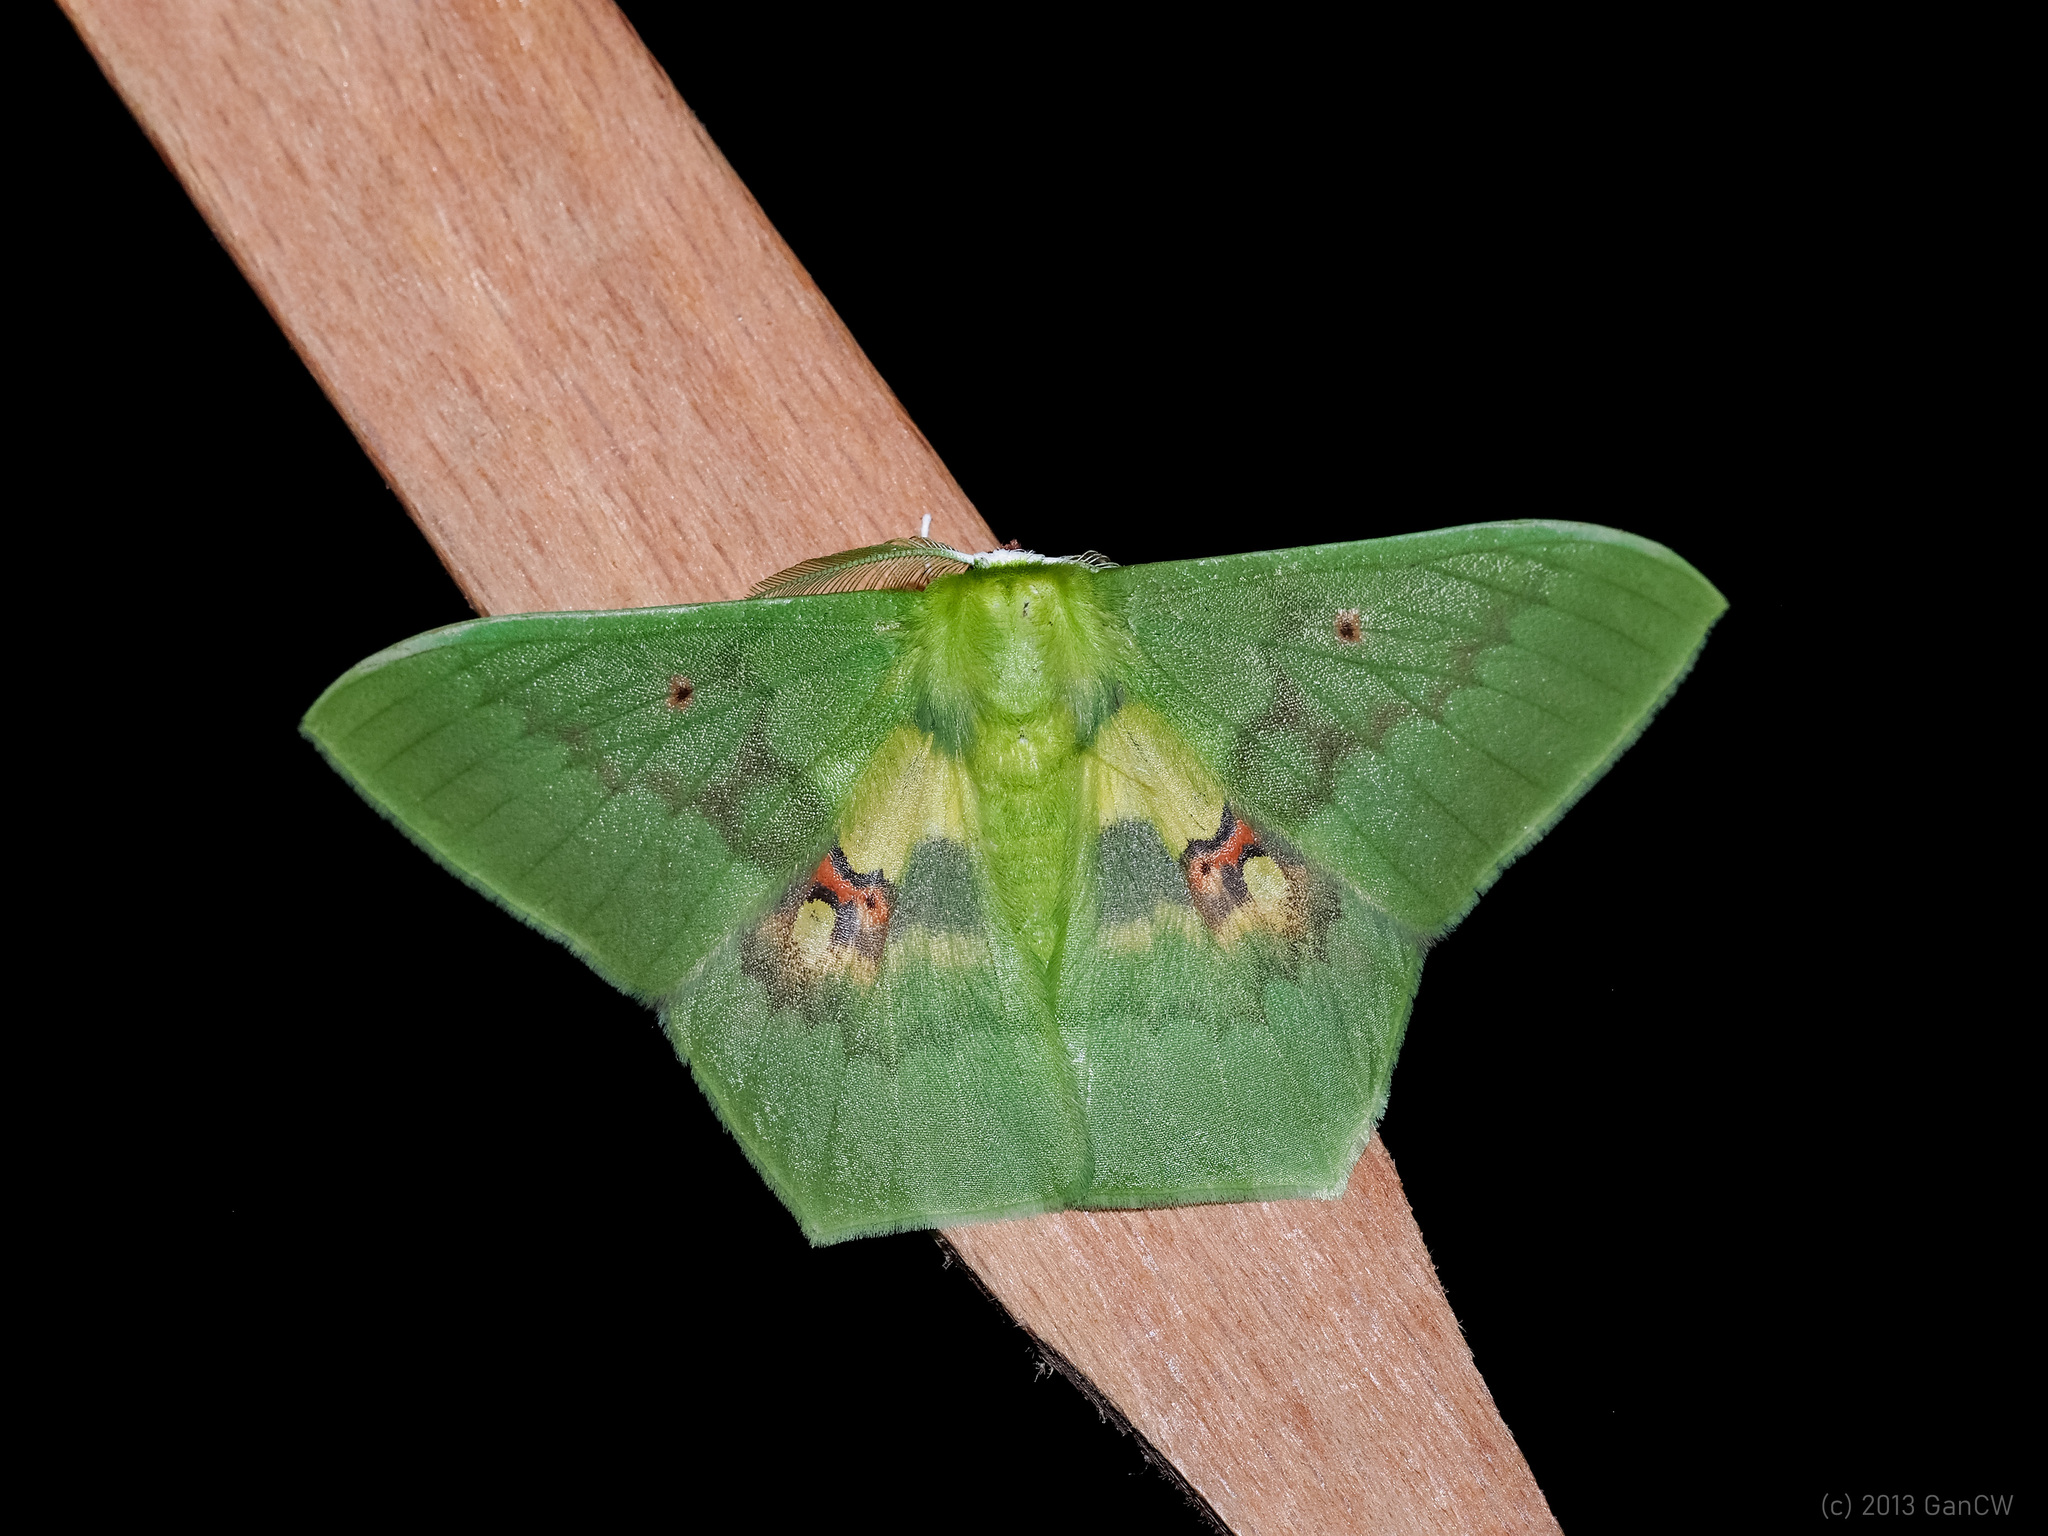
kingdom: Animalia
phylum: Arthropoda
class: Insecta
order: Lepidoptera
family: Geometridae
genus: Aporandria
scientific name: Aporandria specularia
